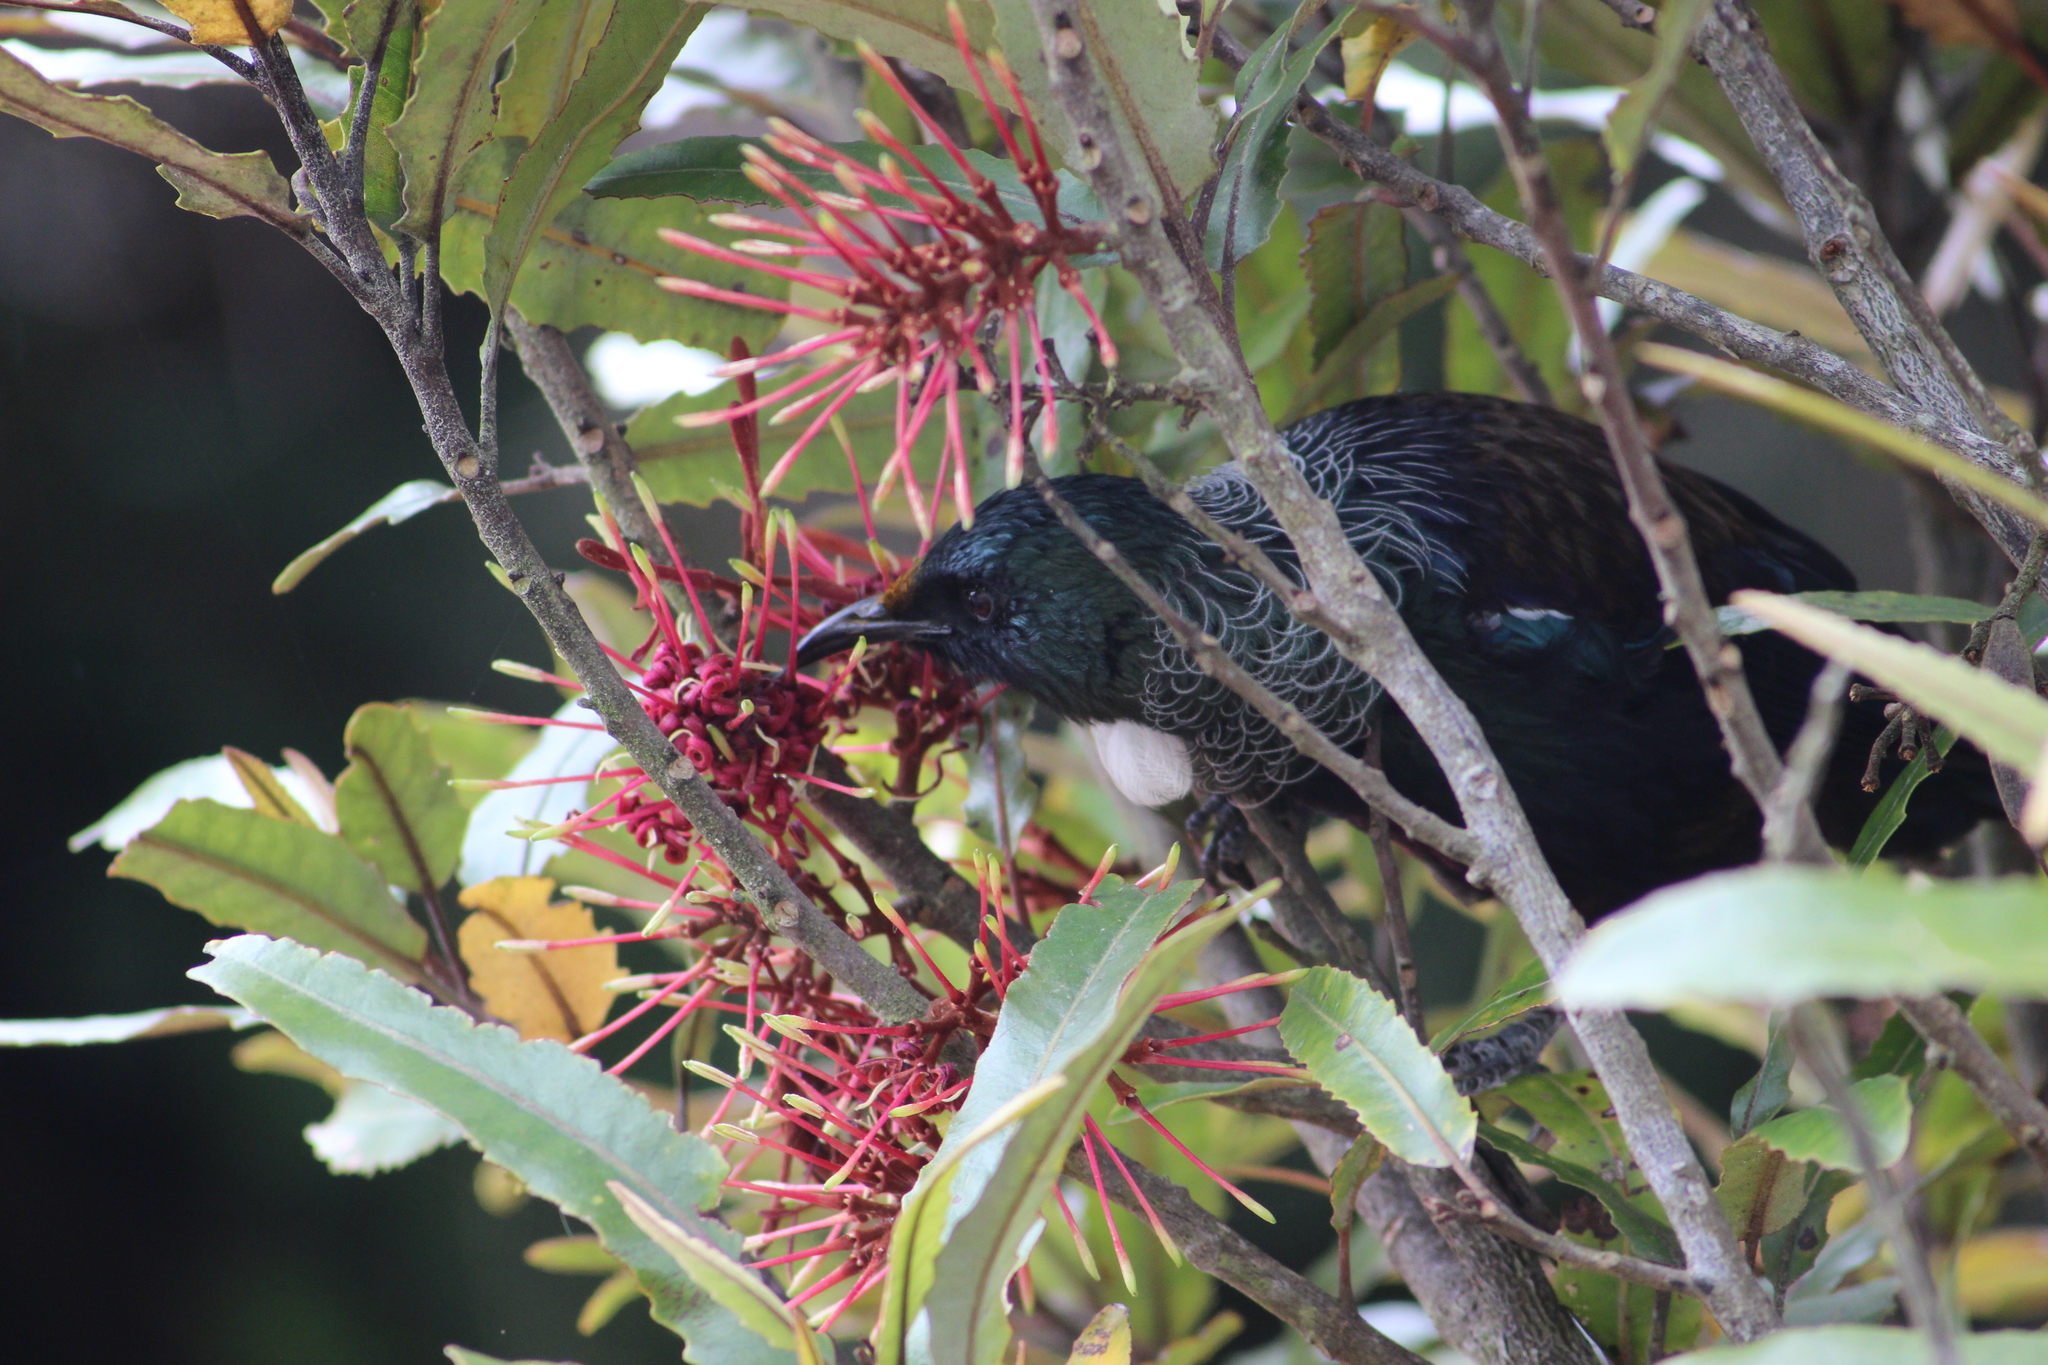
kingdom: Animalia
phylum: Chordata
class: Aves
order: Passeriformes
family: Meliphagidae
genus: Prosthemadera
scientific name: Prosthemadera novaeseelandiae
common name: Tui
